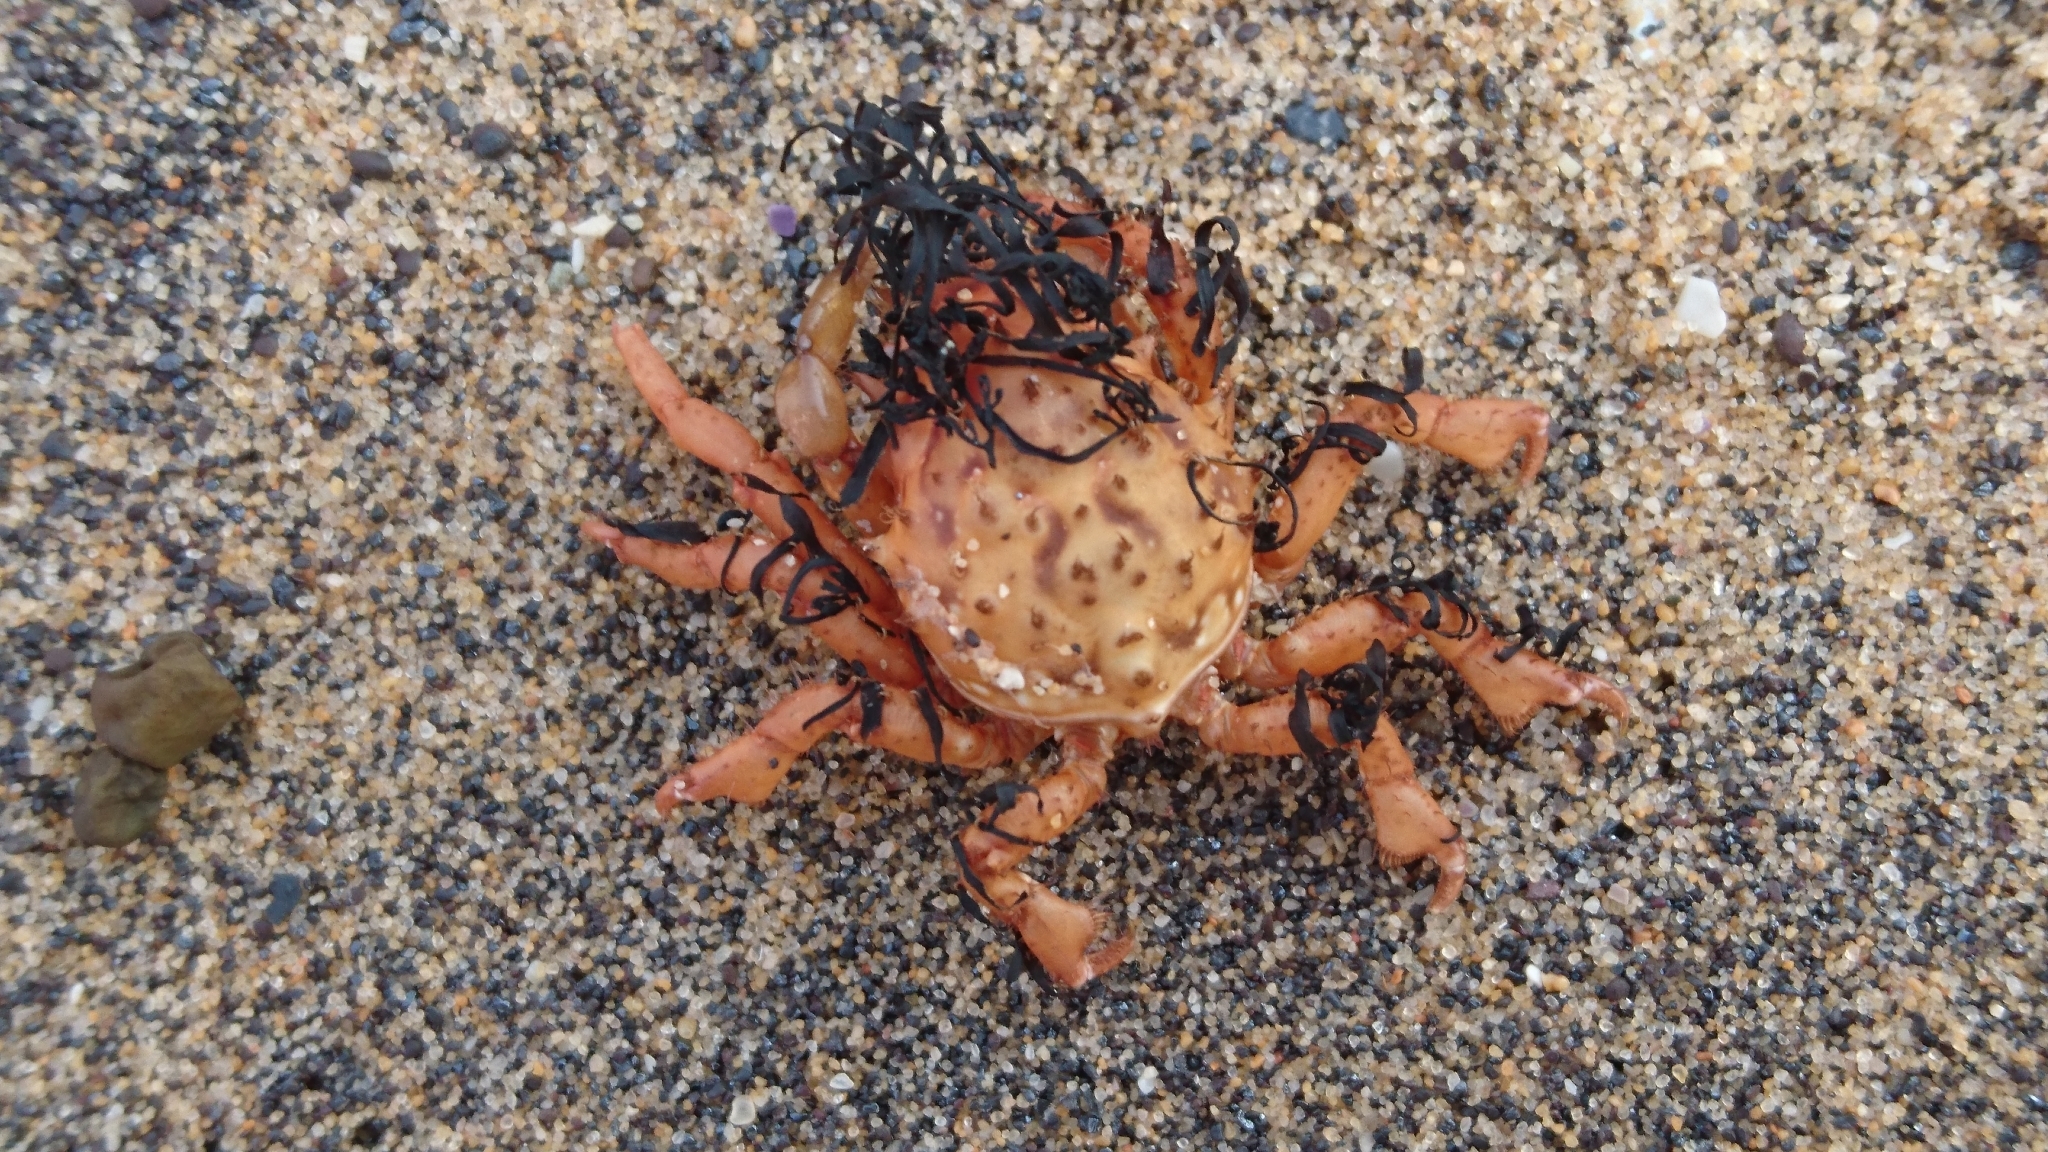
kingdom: Animalia
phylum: Arthropoda
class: Malacostraca
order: Decapoda
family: Majidae
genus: Naxia
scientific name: Naxia
